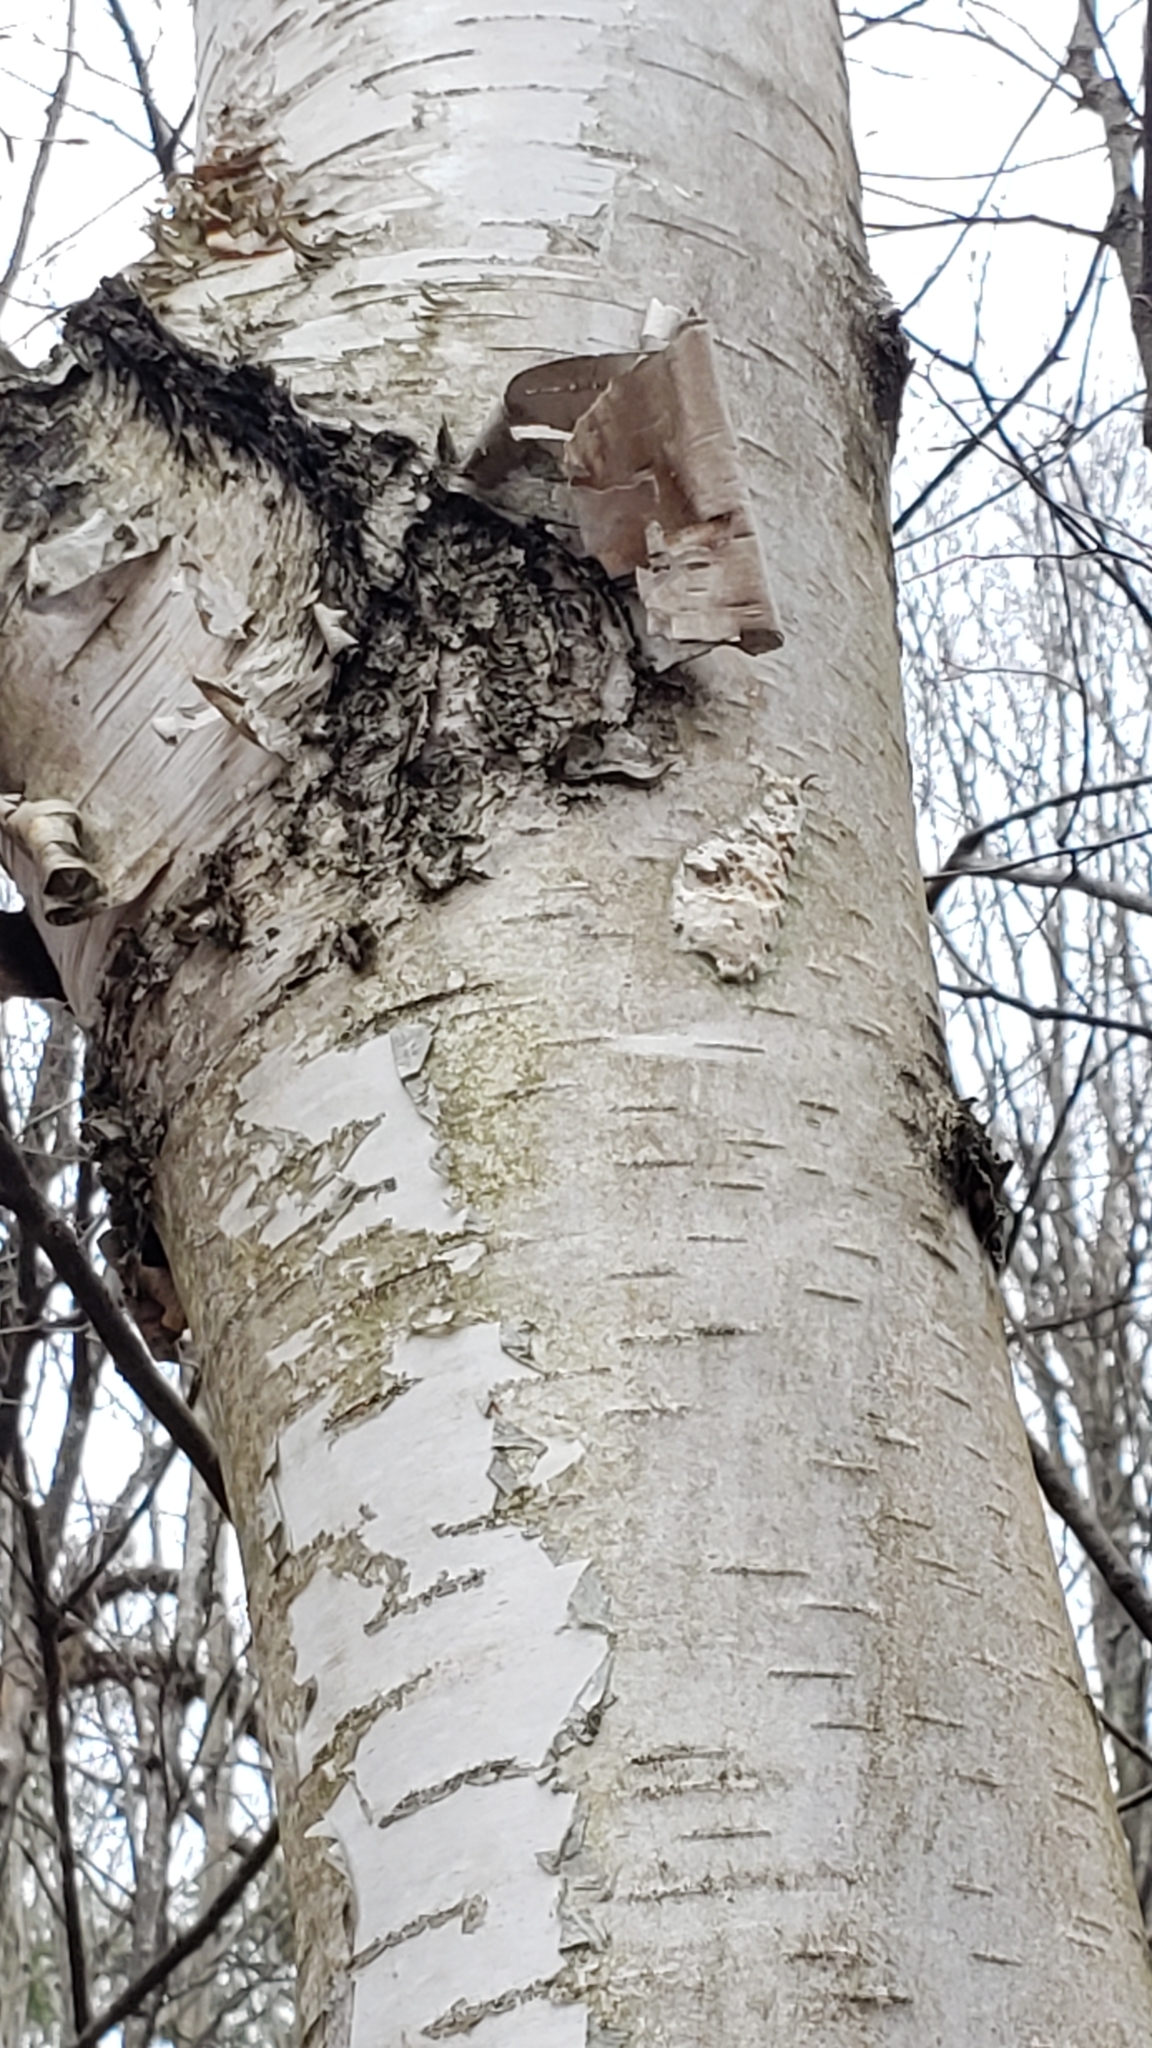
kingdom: Animalia
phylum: Arthropoda
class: Insecta
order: Lepidoptera
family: Erebidae
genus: Lymantria
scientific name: Lymantria dispar
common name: Gypsy moth
